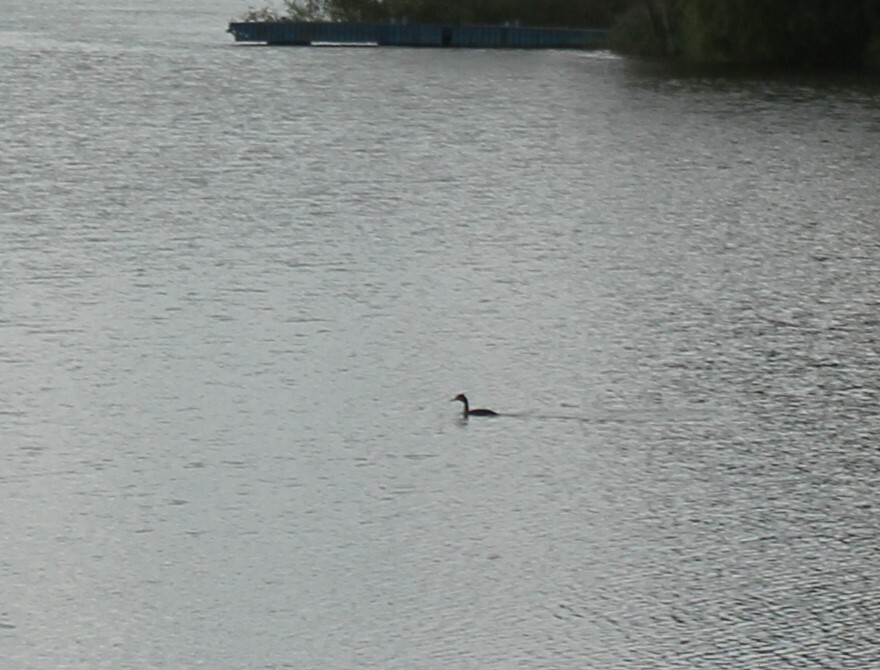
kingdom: Animalia
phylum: Chordata
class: Aves
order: Podicipediformes
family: Podicipedidae
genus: Podiceps
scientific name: Podiceps cristatus
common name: Great crested grebe
